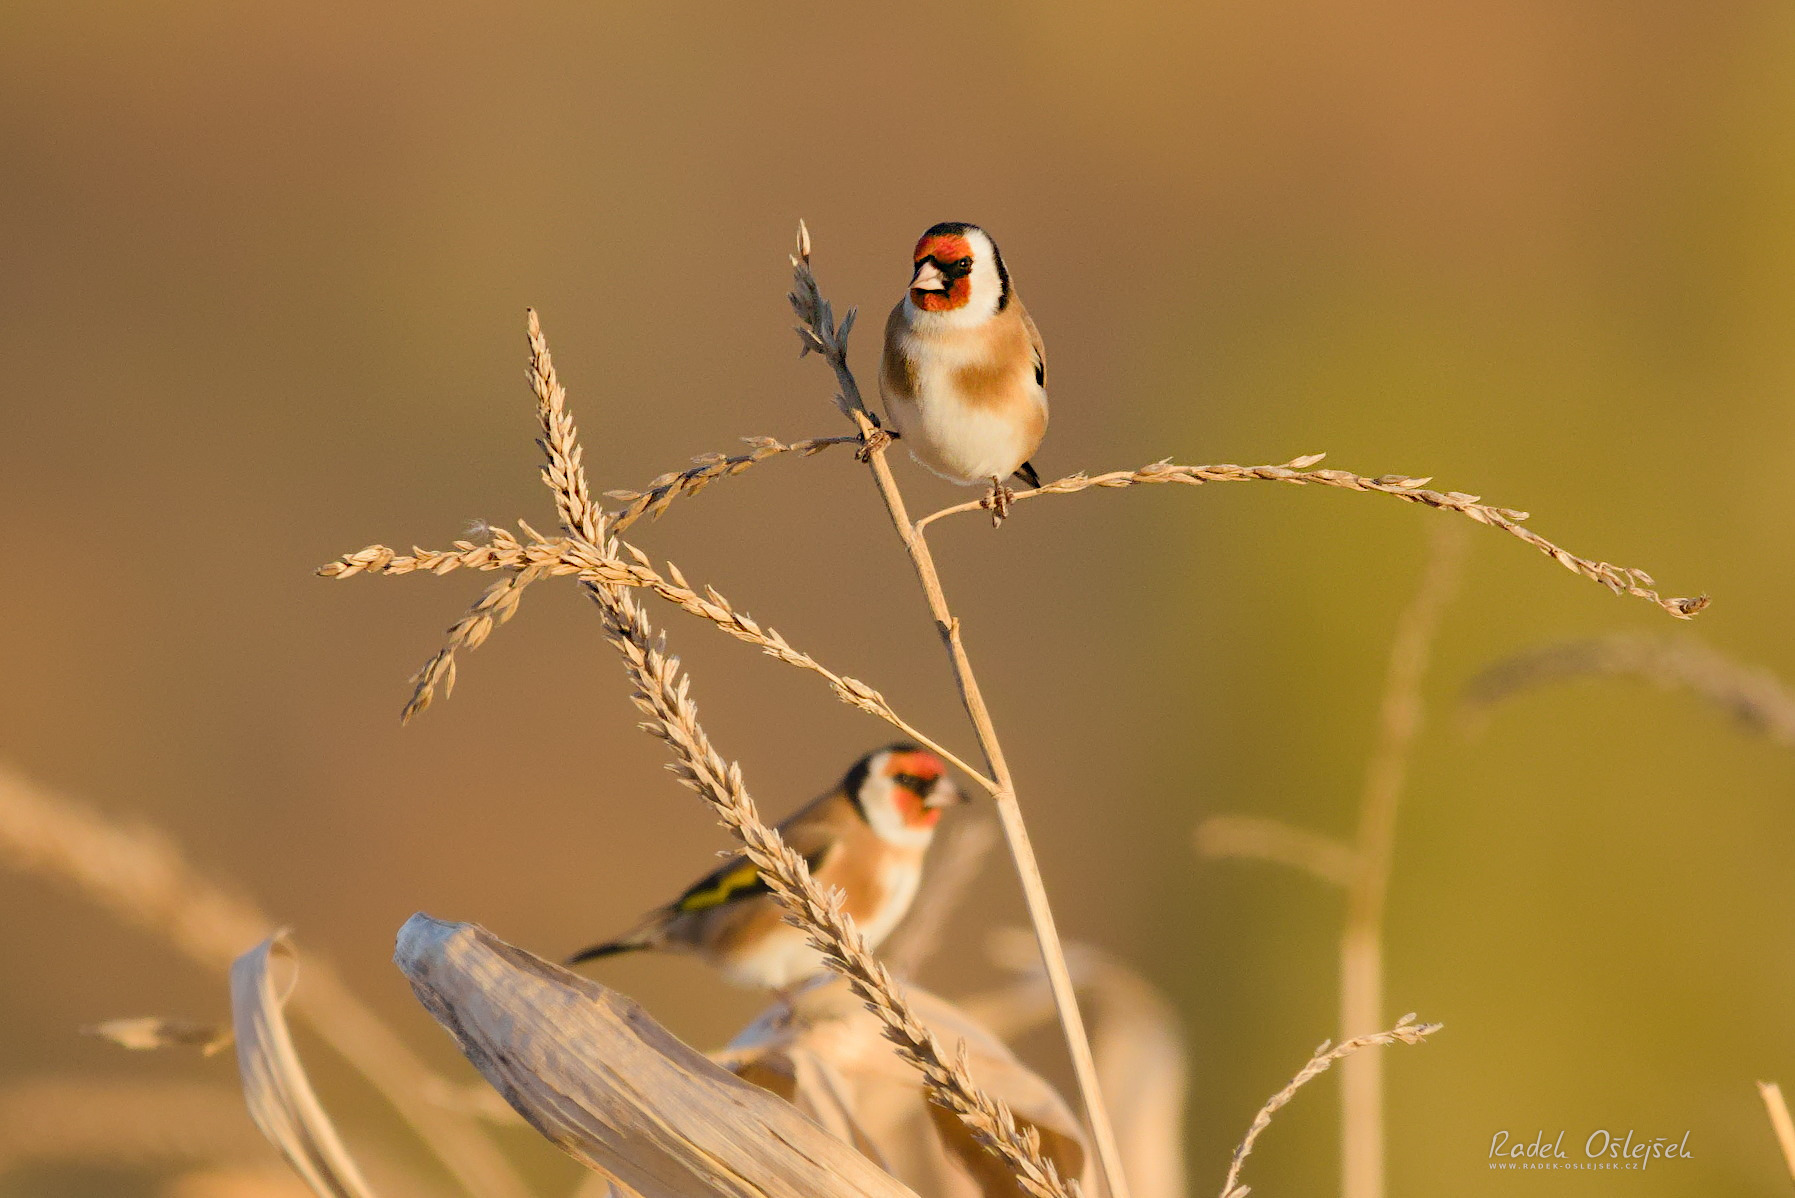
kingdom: Animalia
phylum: Chordata
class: Aves
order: Passeriformes
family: Fringillidae
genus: Carduelis
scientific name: Carduelis carduelis
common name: European goldfinch
